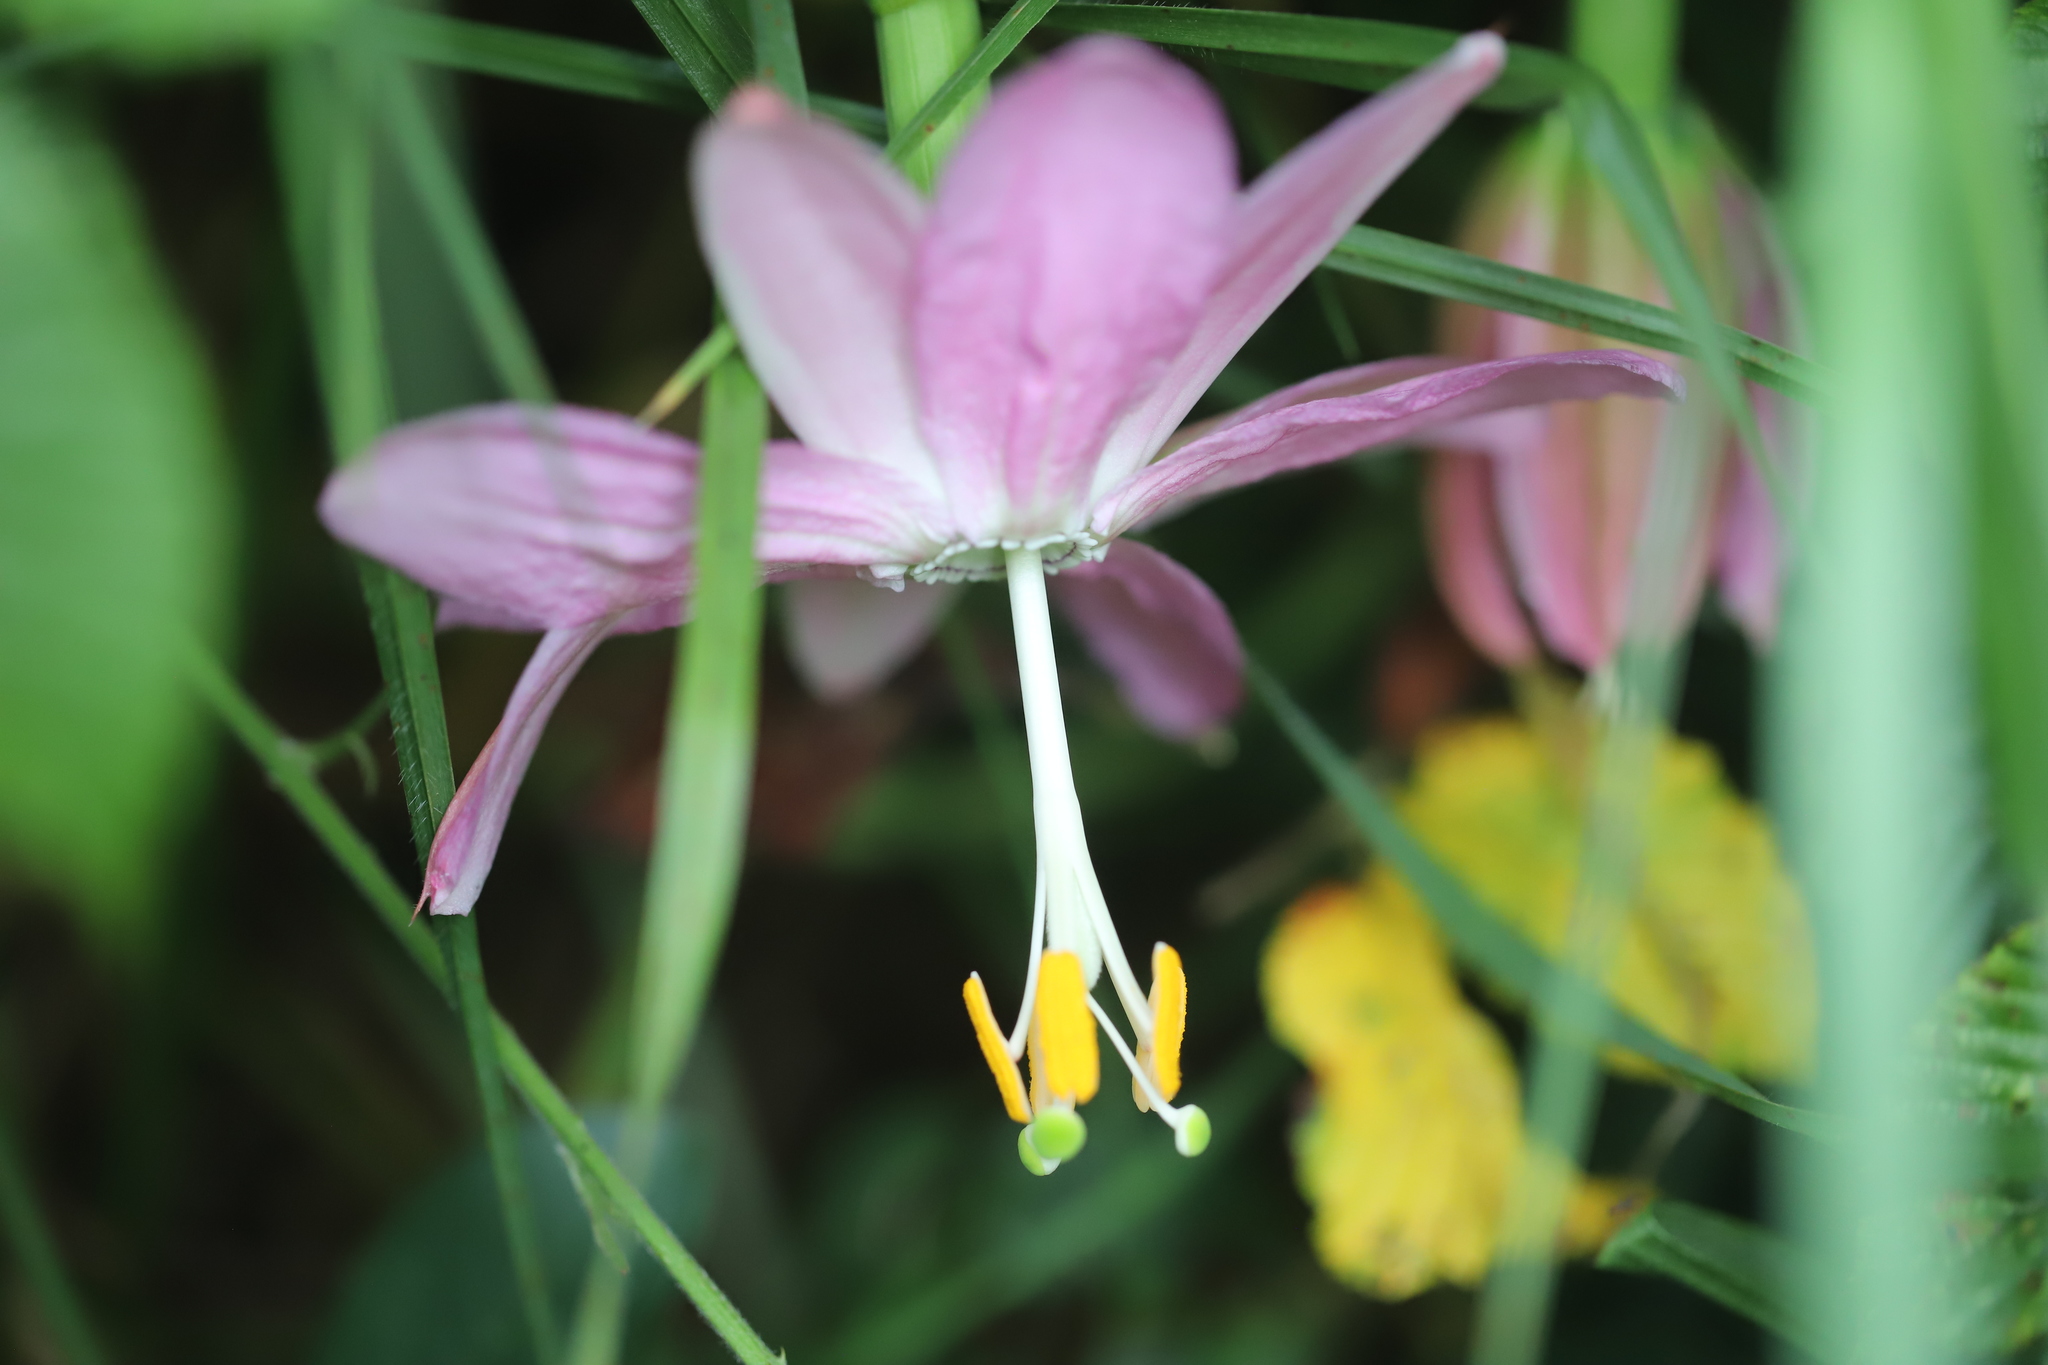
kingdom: Plantae
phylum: Tracheophyta
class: Magnoliopsida
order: Malpighiales
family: Passifloraceae
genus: Passiflora
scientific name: Passiflora tarminiana
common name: Banana poka
